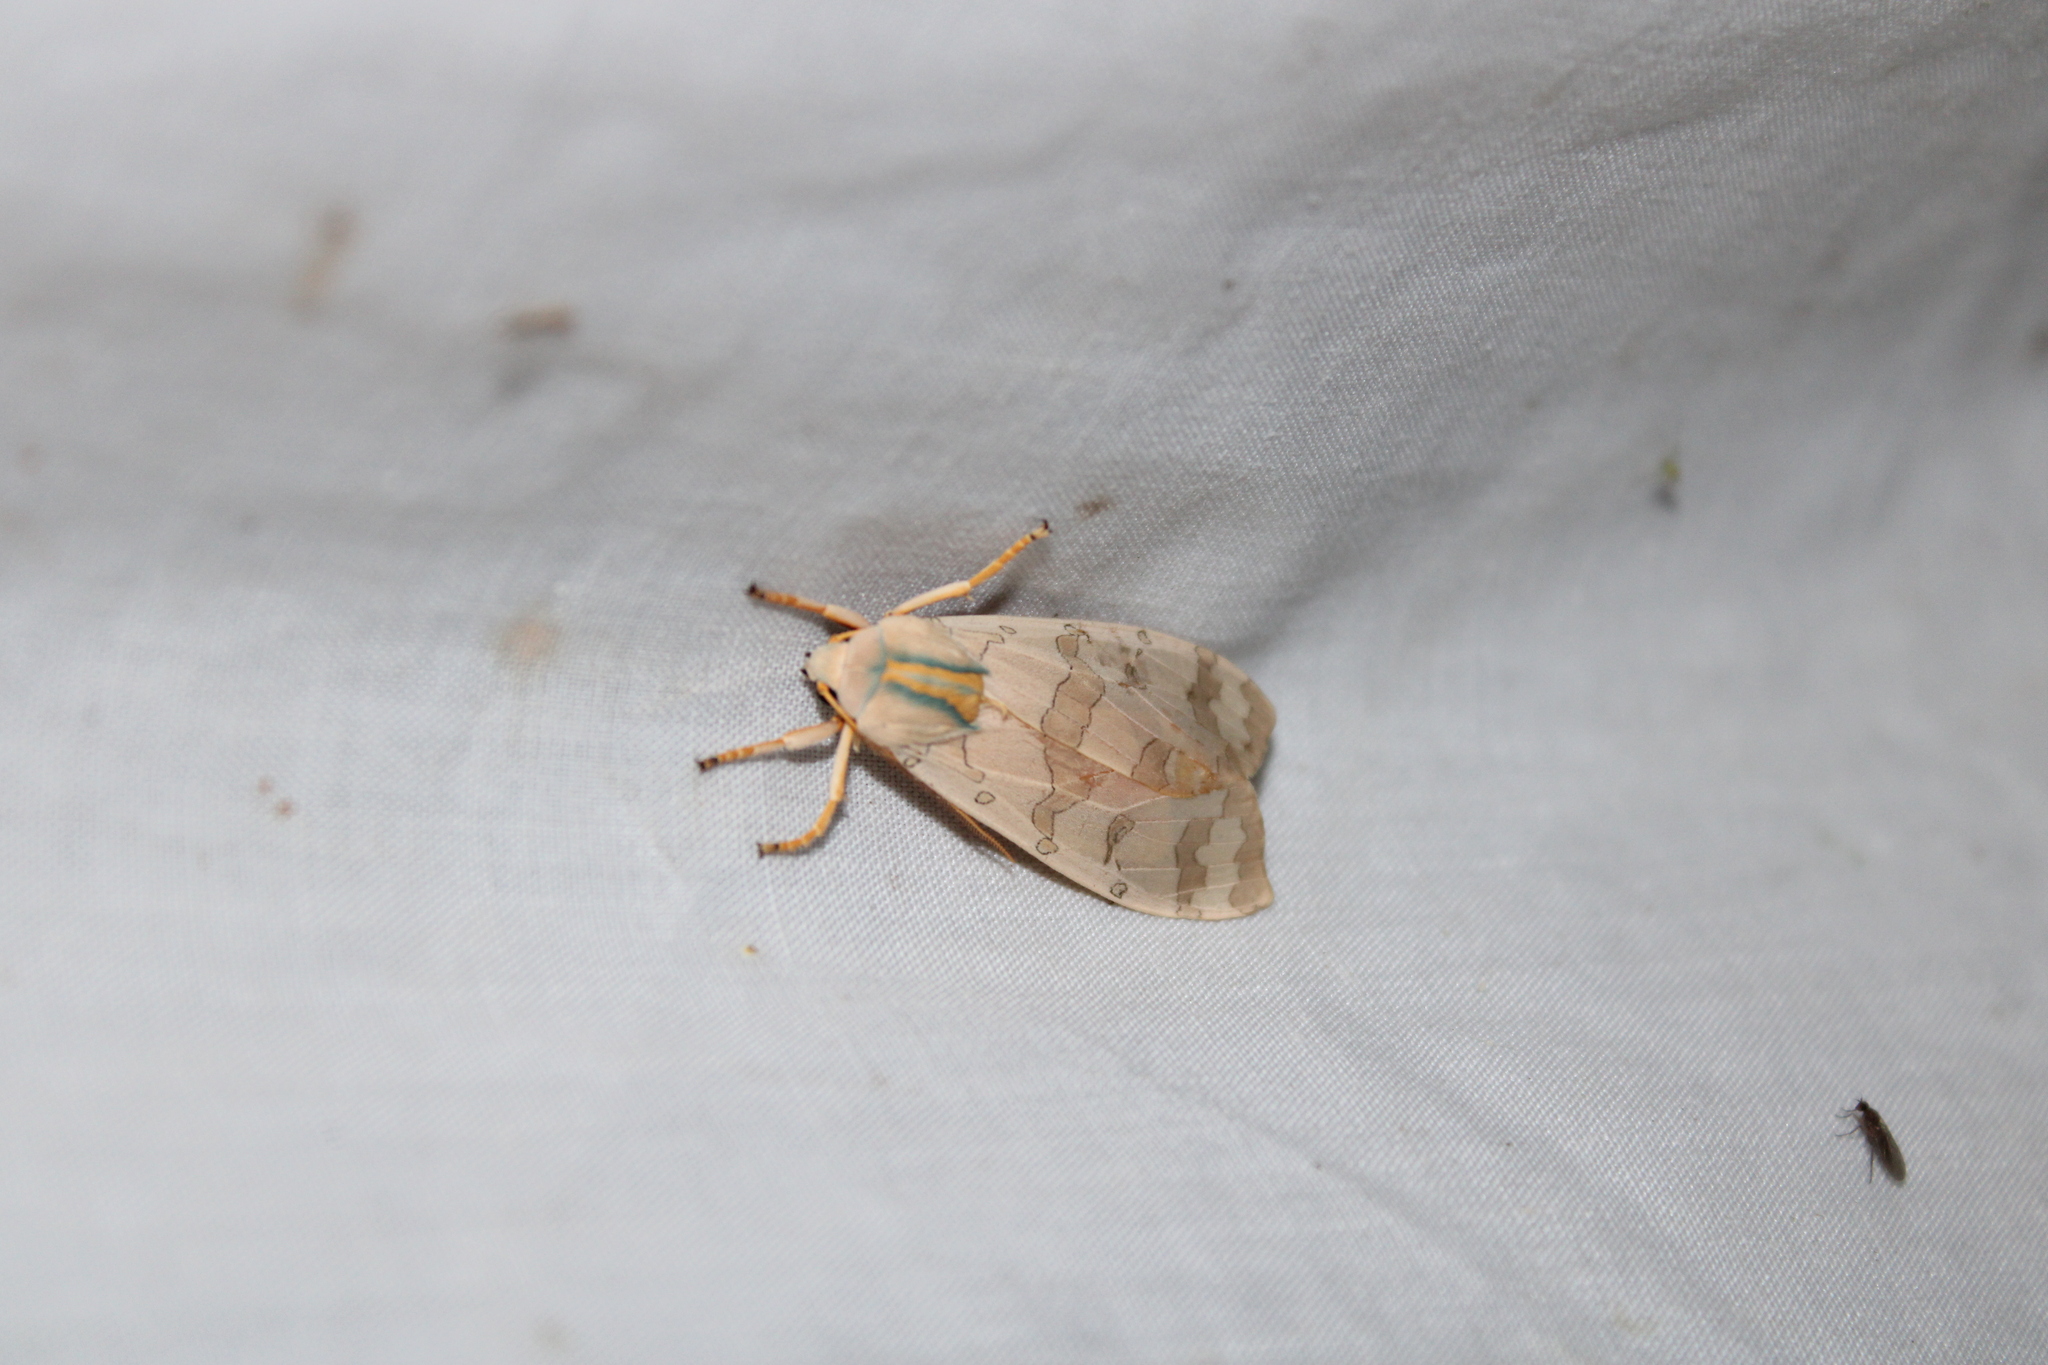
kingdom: Animalia
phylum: Arthropoda
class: Insecta
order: Lepidoptera
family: Erebidae
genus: Halysidota
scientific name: Halysidota
